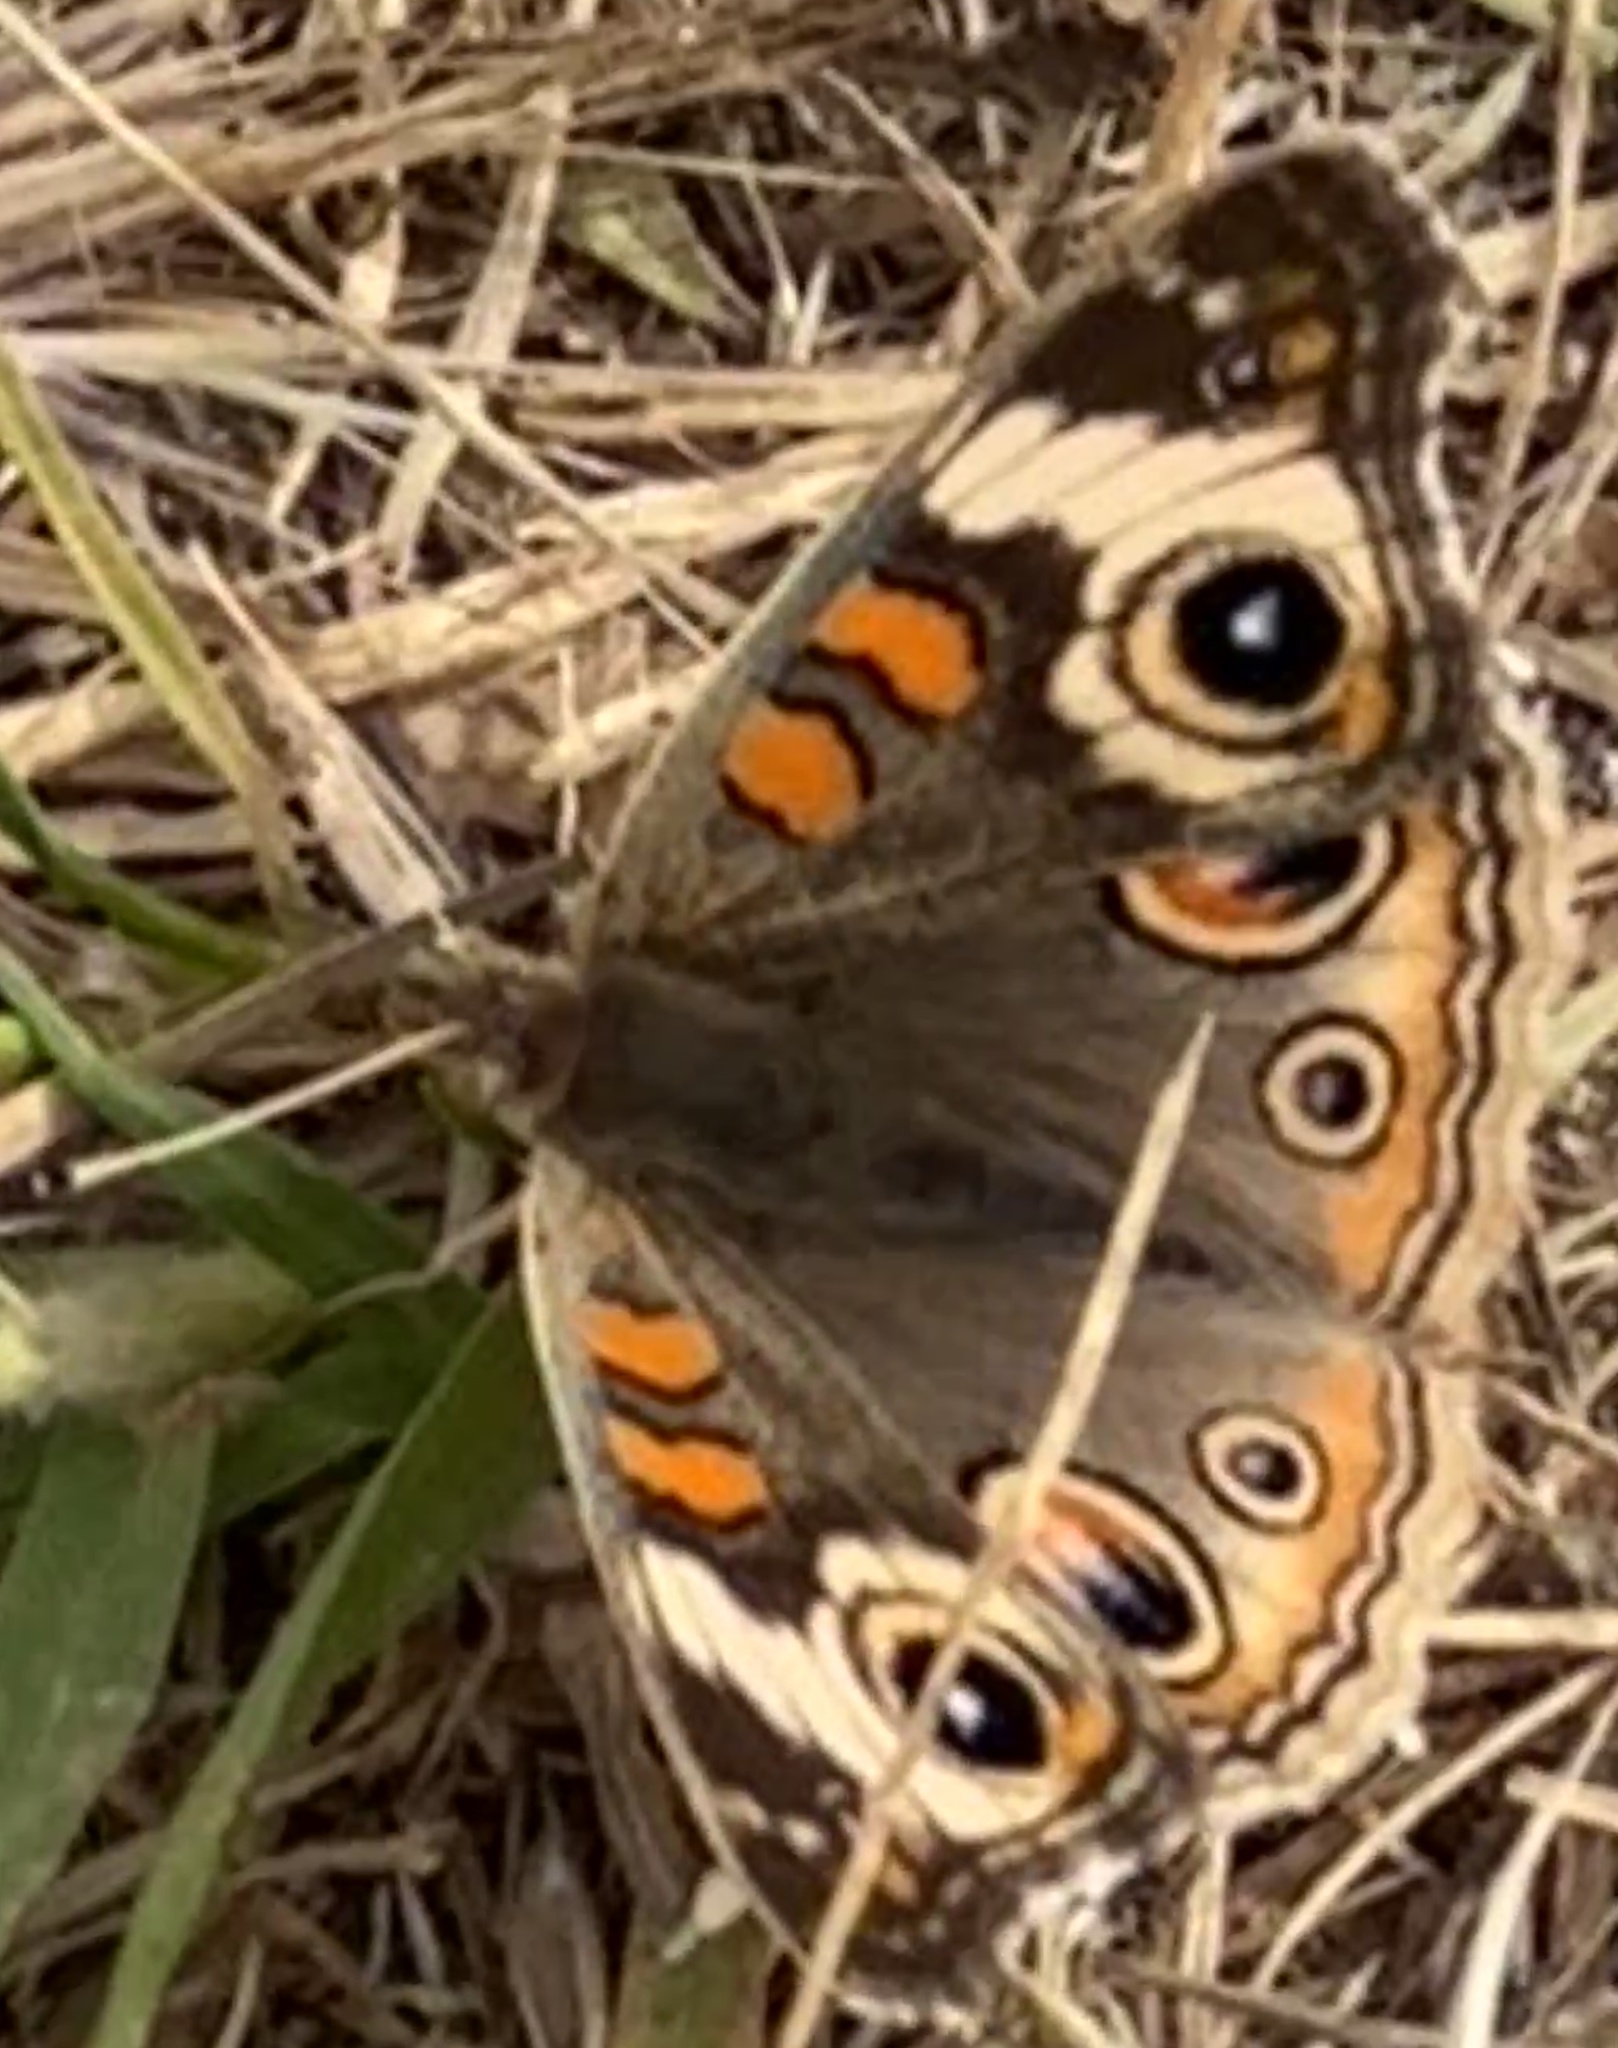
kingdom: Animalia
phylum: Arthropoda
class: Insecta
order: Lepidoptera
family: Nymphalidae
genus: Junonia
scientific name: Junonia grisea
